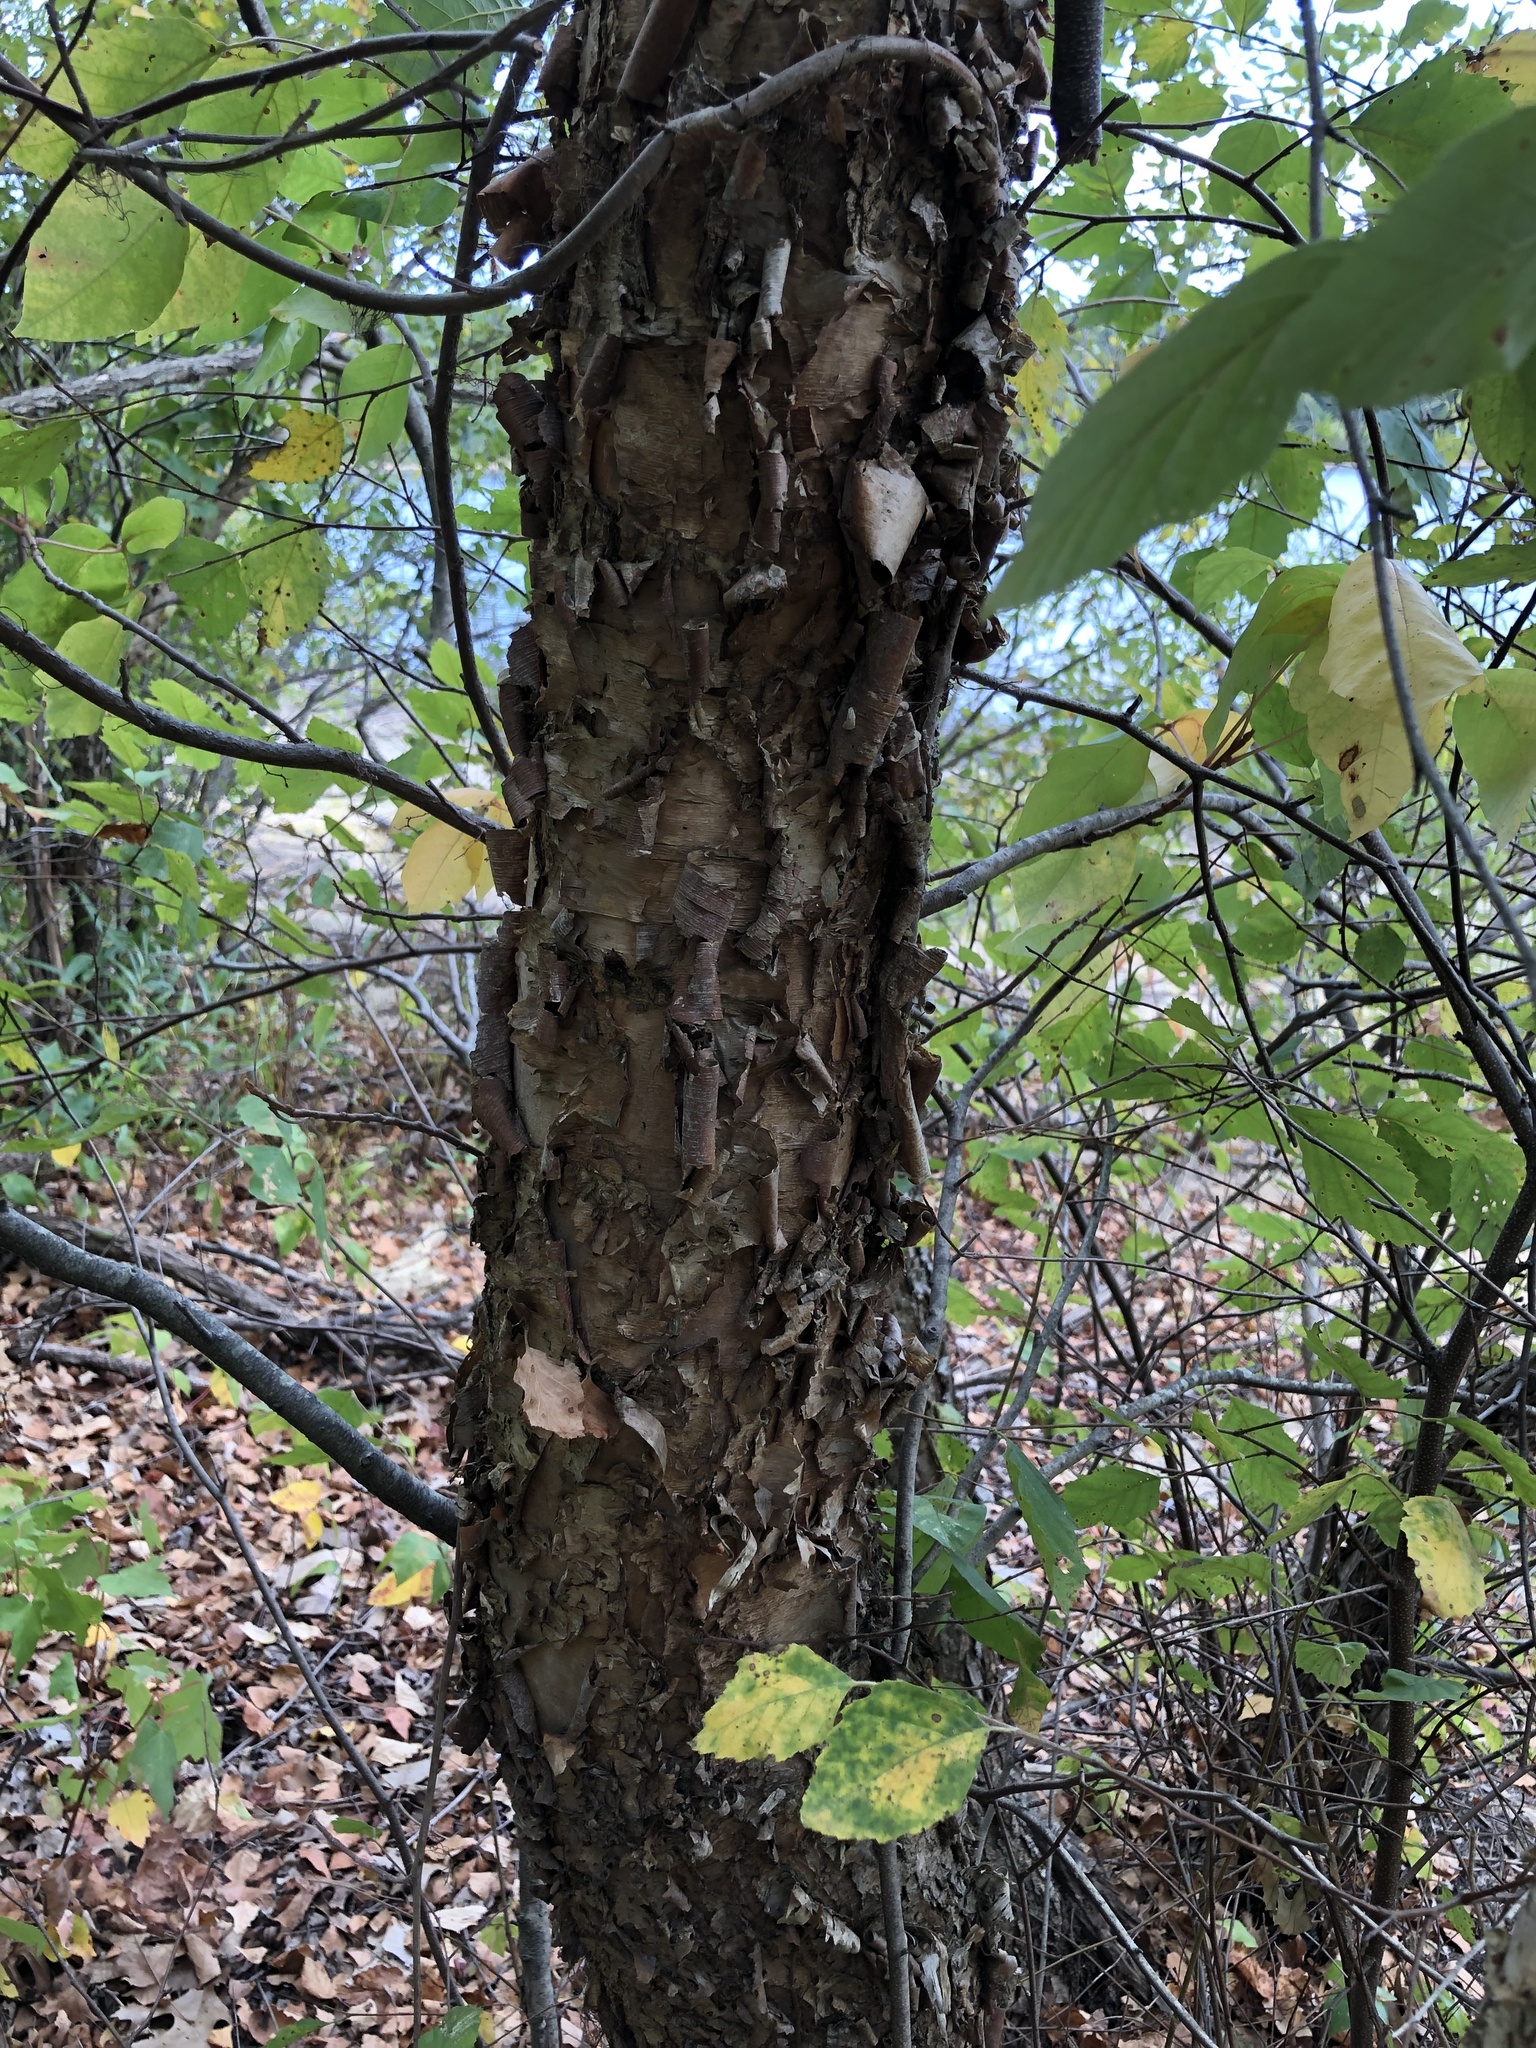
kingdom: Plantae
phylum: Tracheophyta
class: Magnoliopsida
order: Fagales
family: Betulaceae
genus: Betula
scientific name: Betula nigra
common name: Black birch
